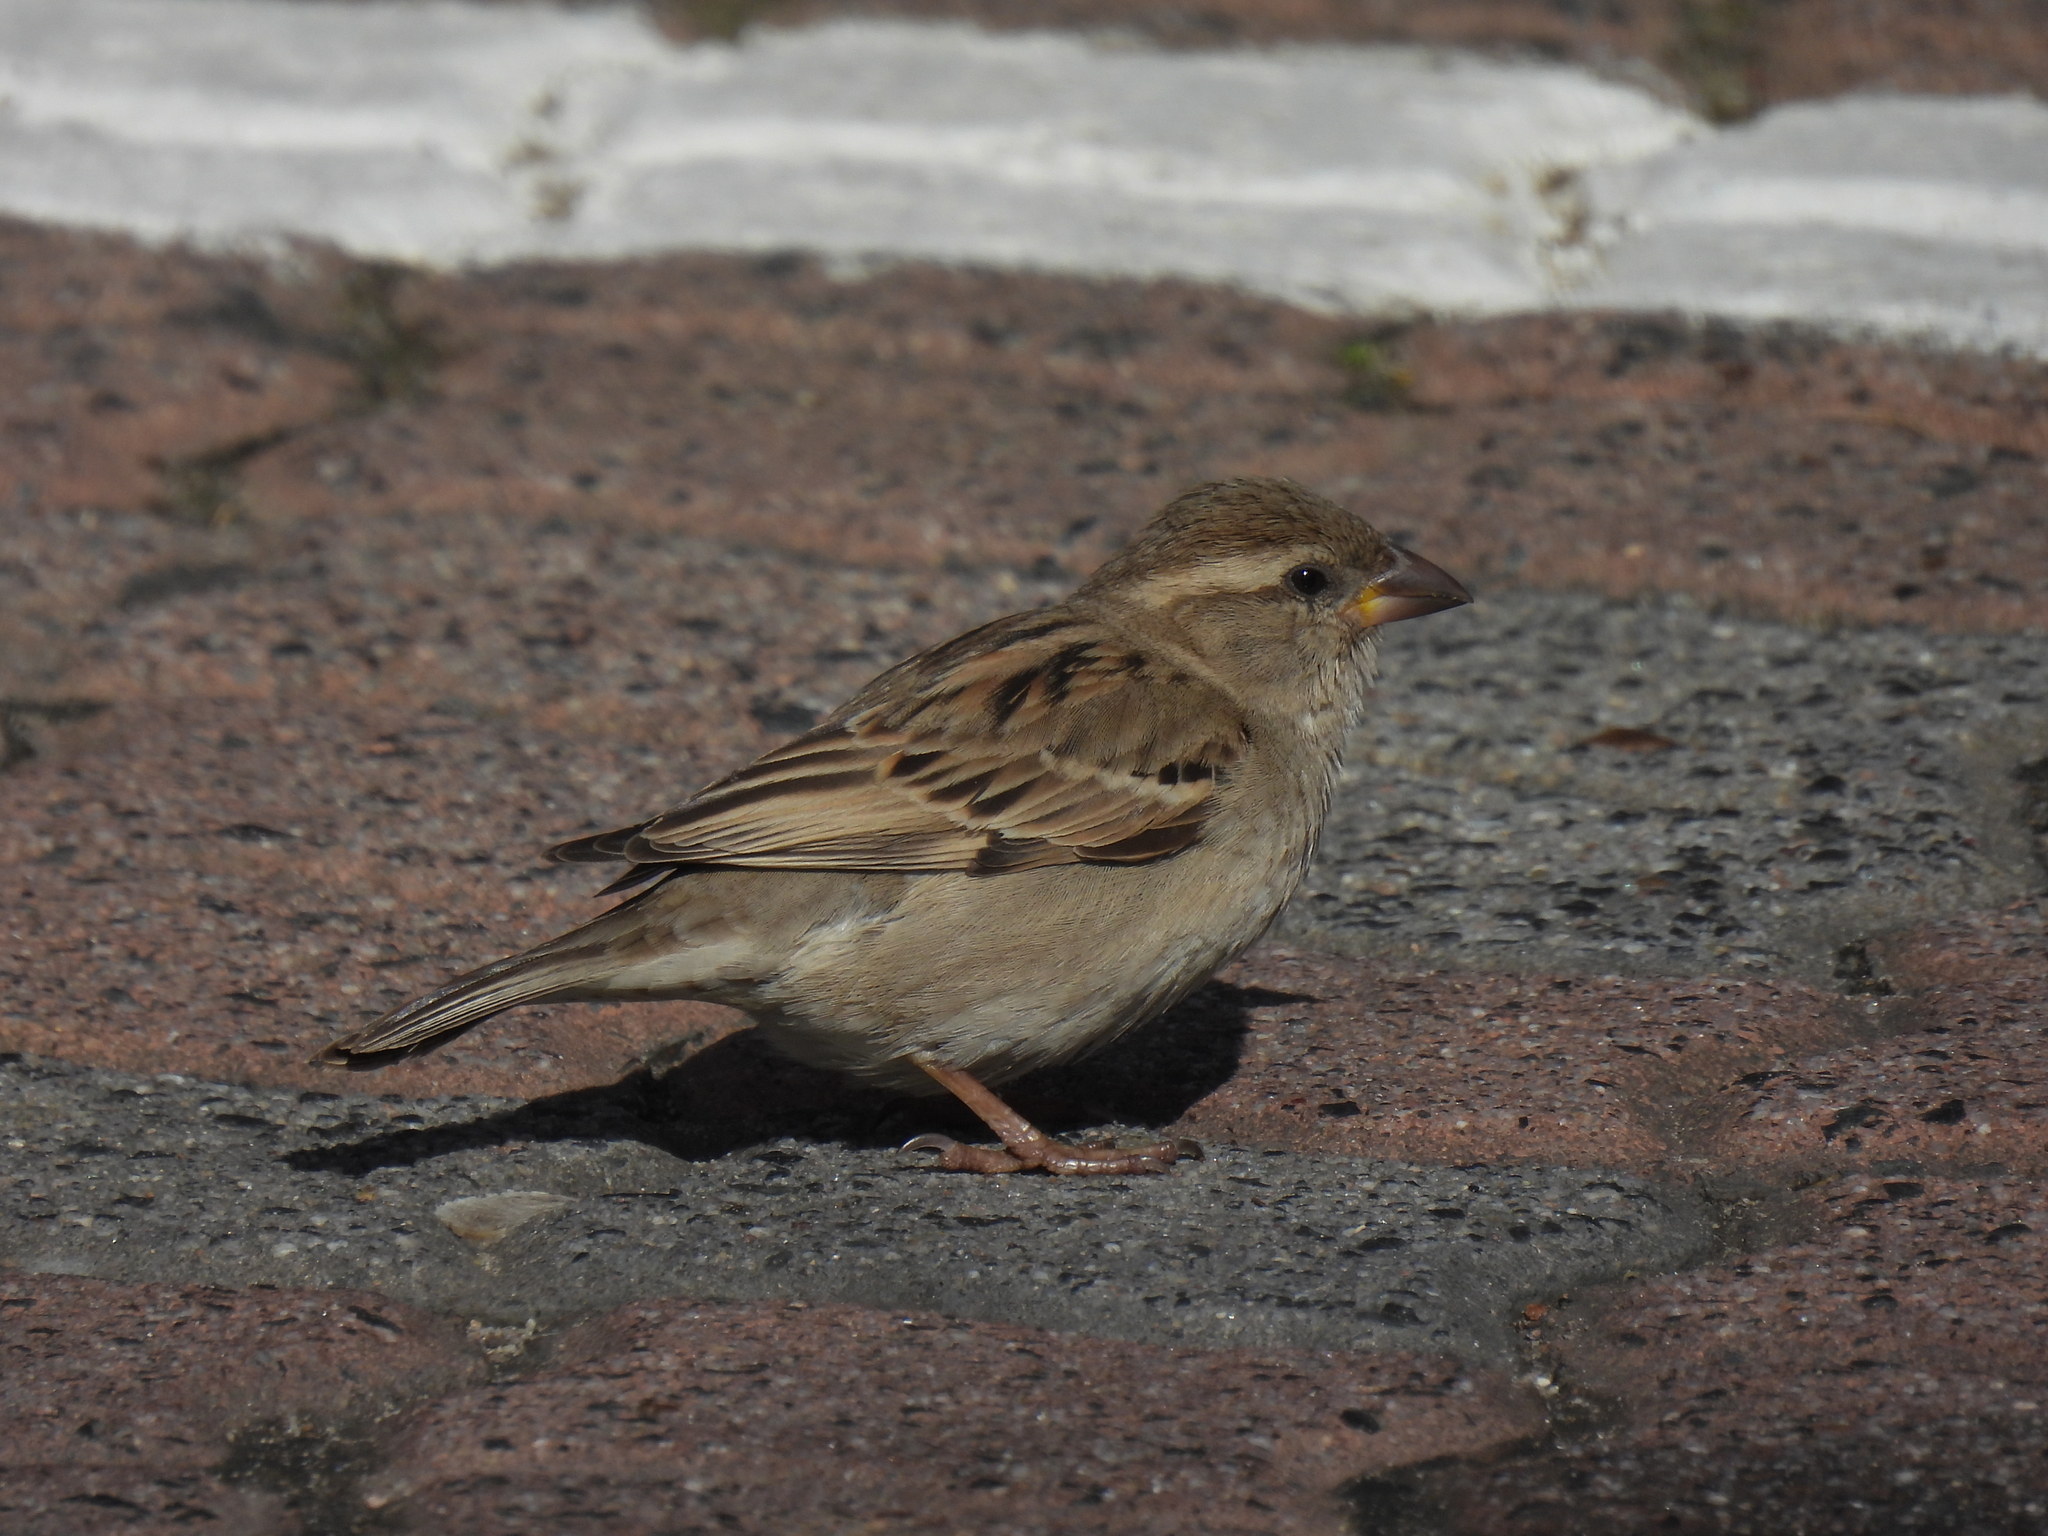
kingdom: Animalia
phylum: Chordata
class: Aves
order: Passeriformes
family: Passeridae
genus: Passer
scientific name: Passer domesticus
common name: House sparrow
